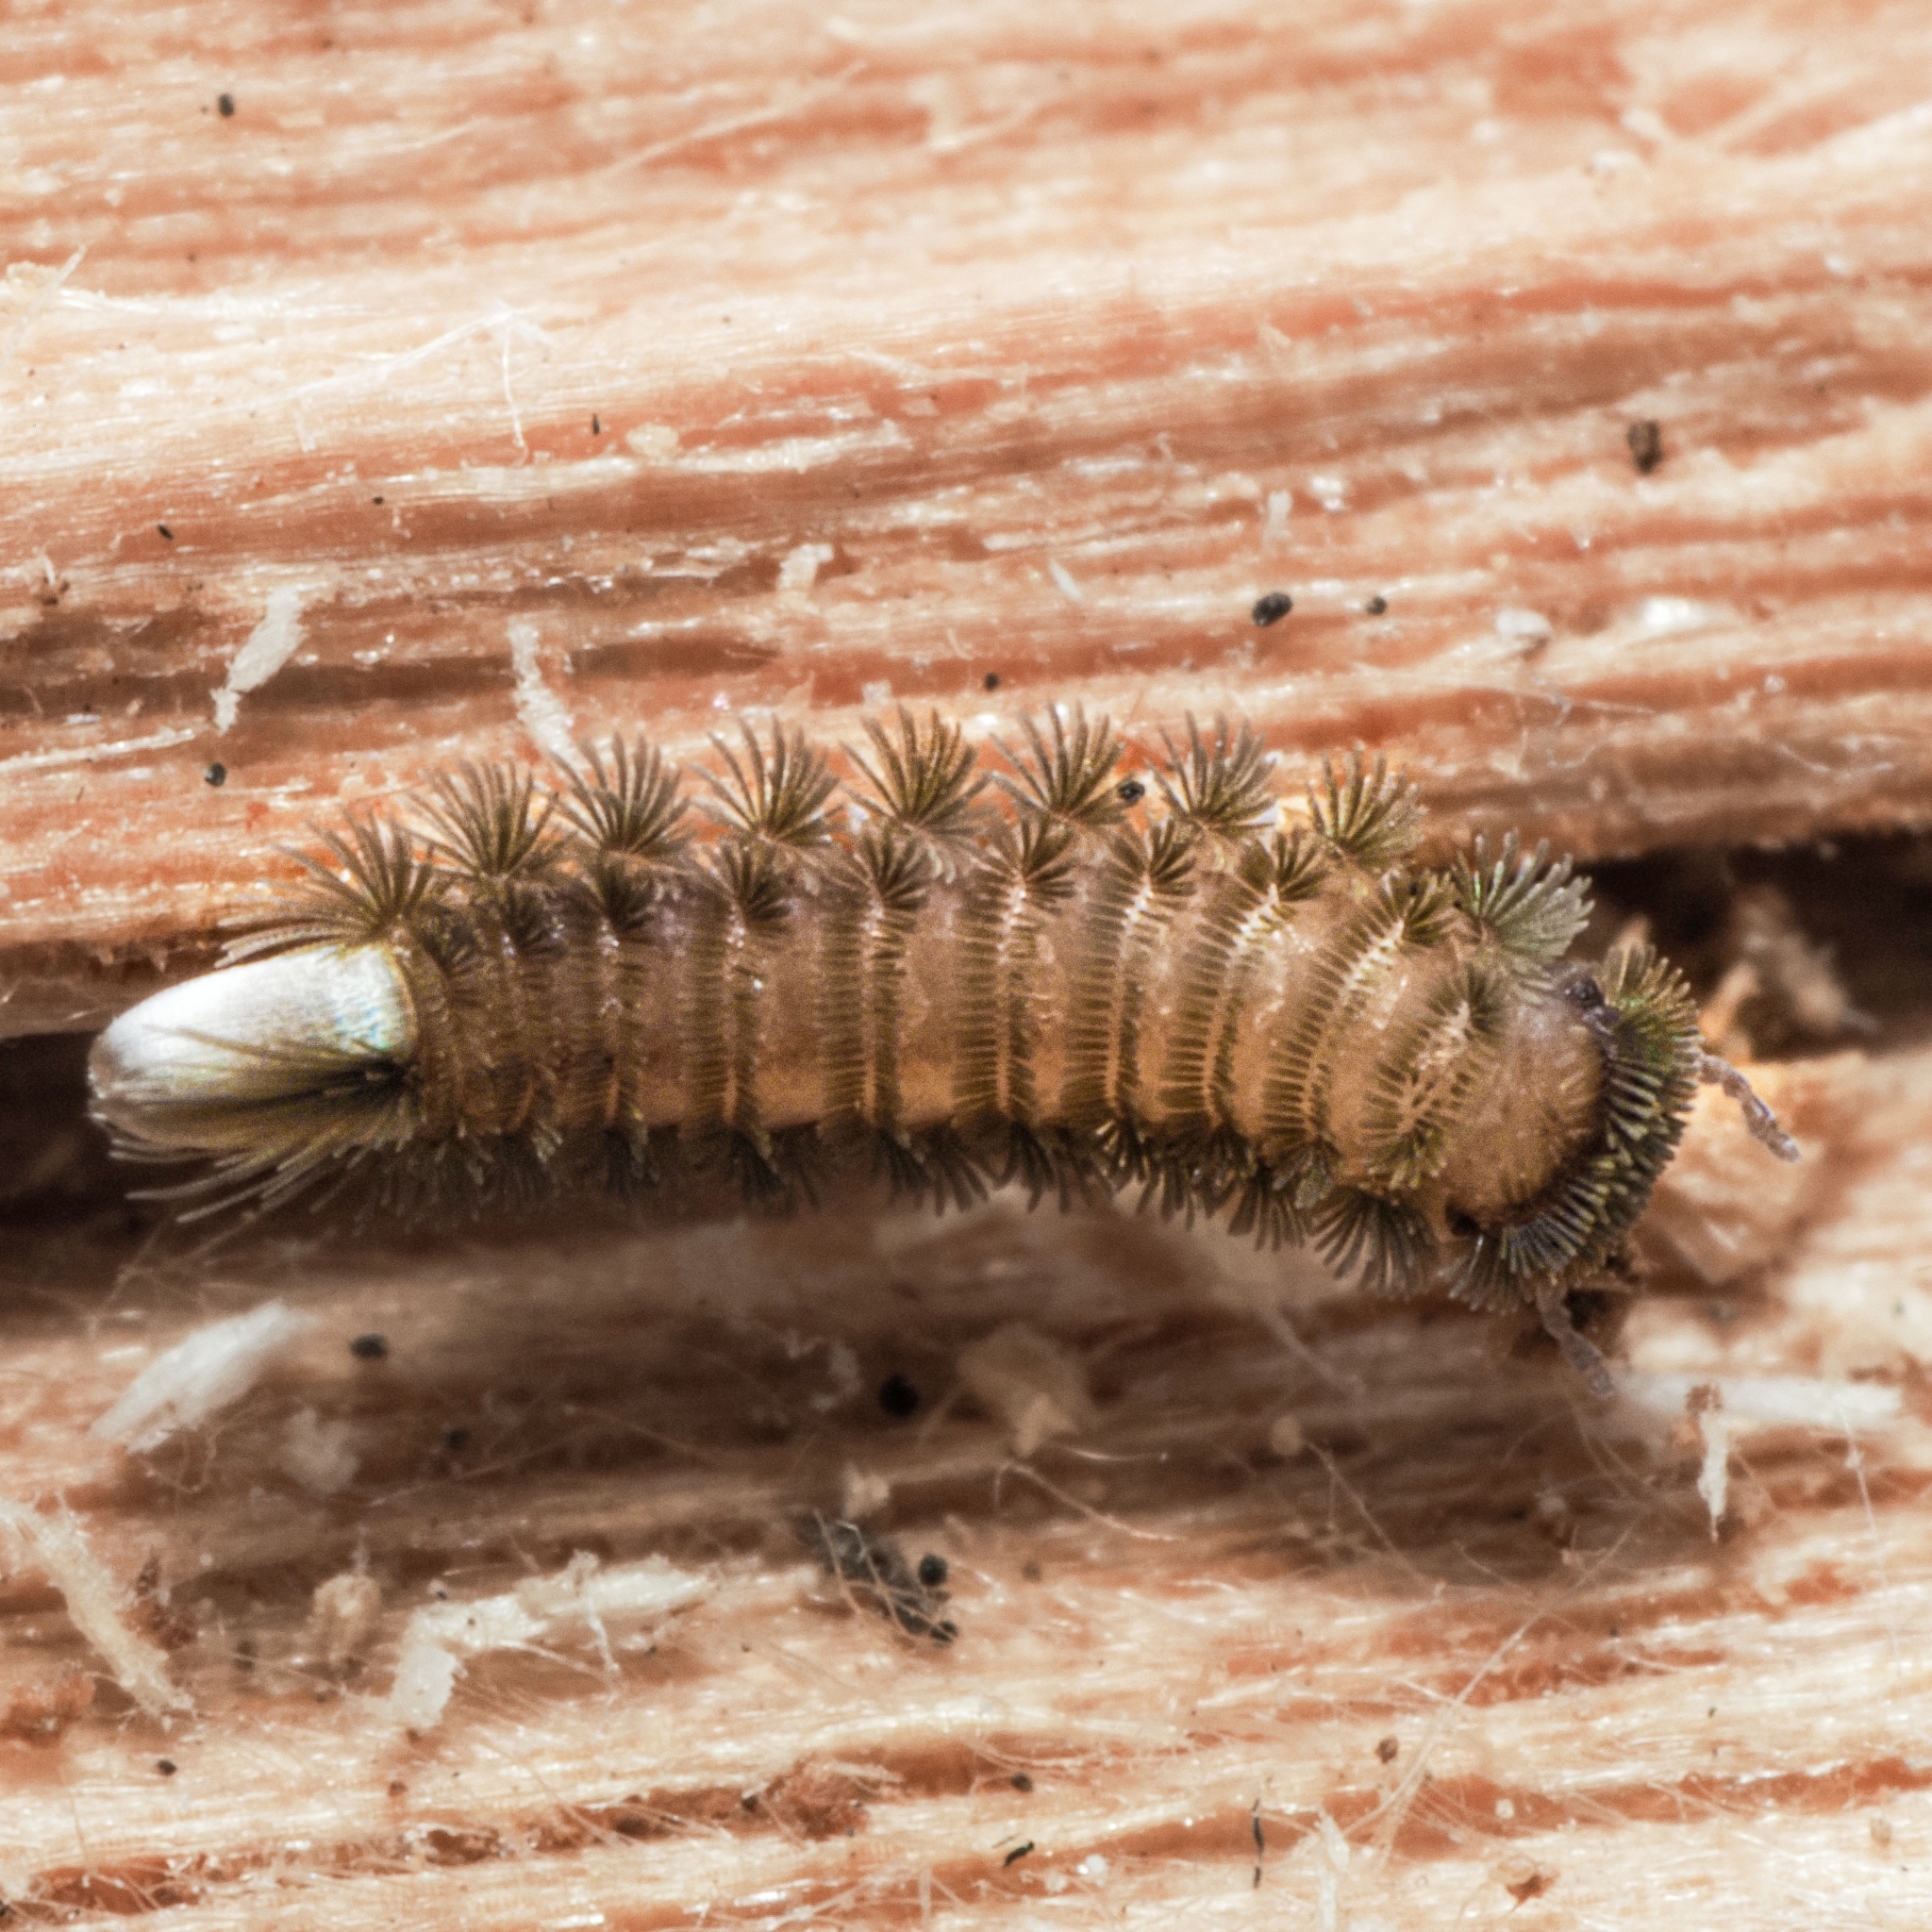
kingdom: Animalia
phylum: Arthropoda
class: Diplopoda
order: Polyxenida
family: Polyxenidae
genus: Polyxenus
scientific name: Polyxenus lagurus
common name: Bristly millipede
